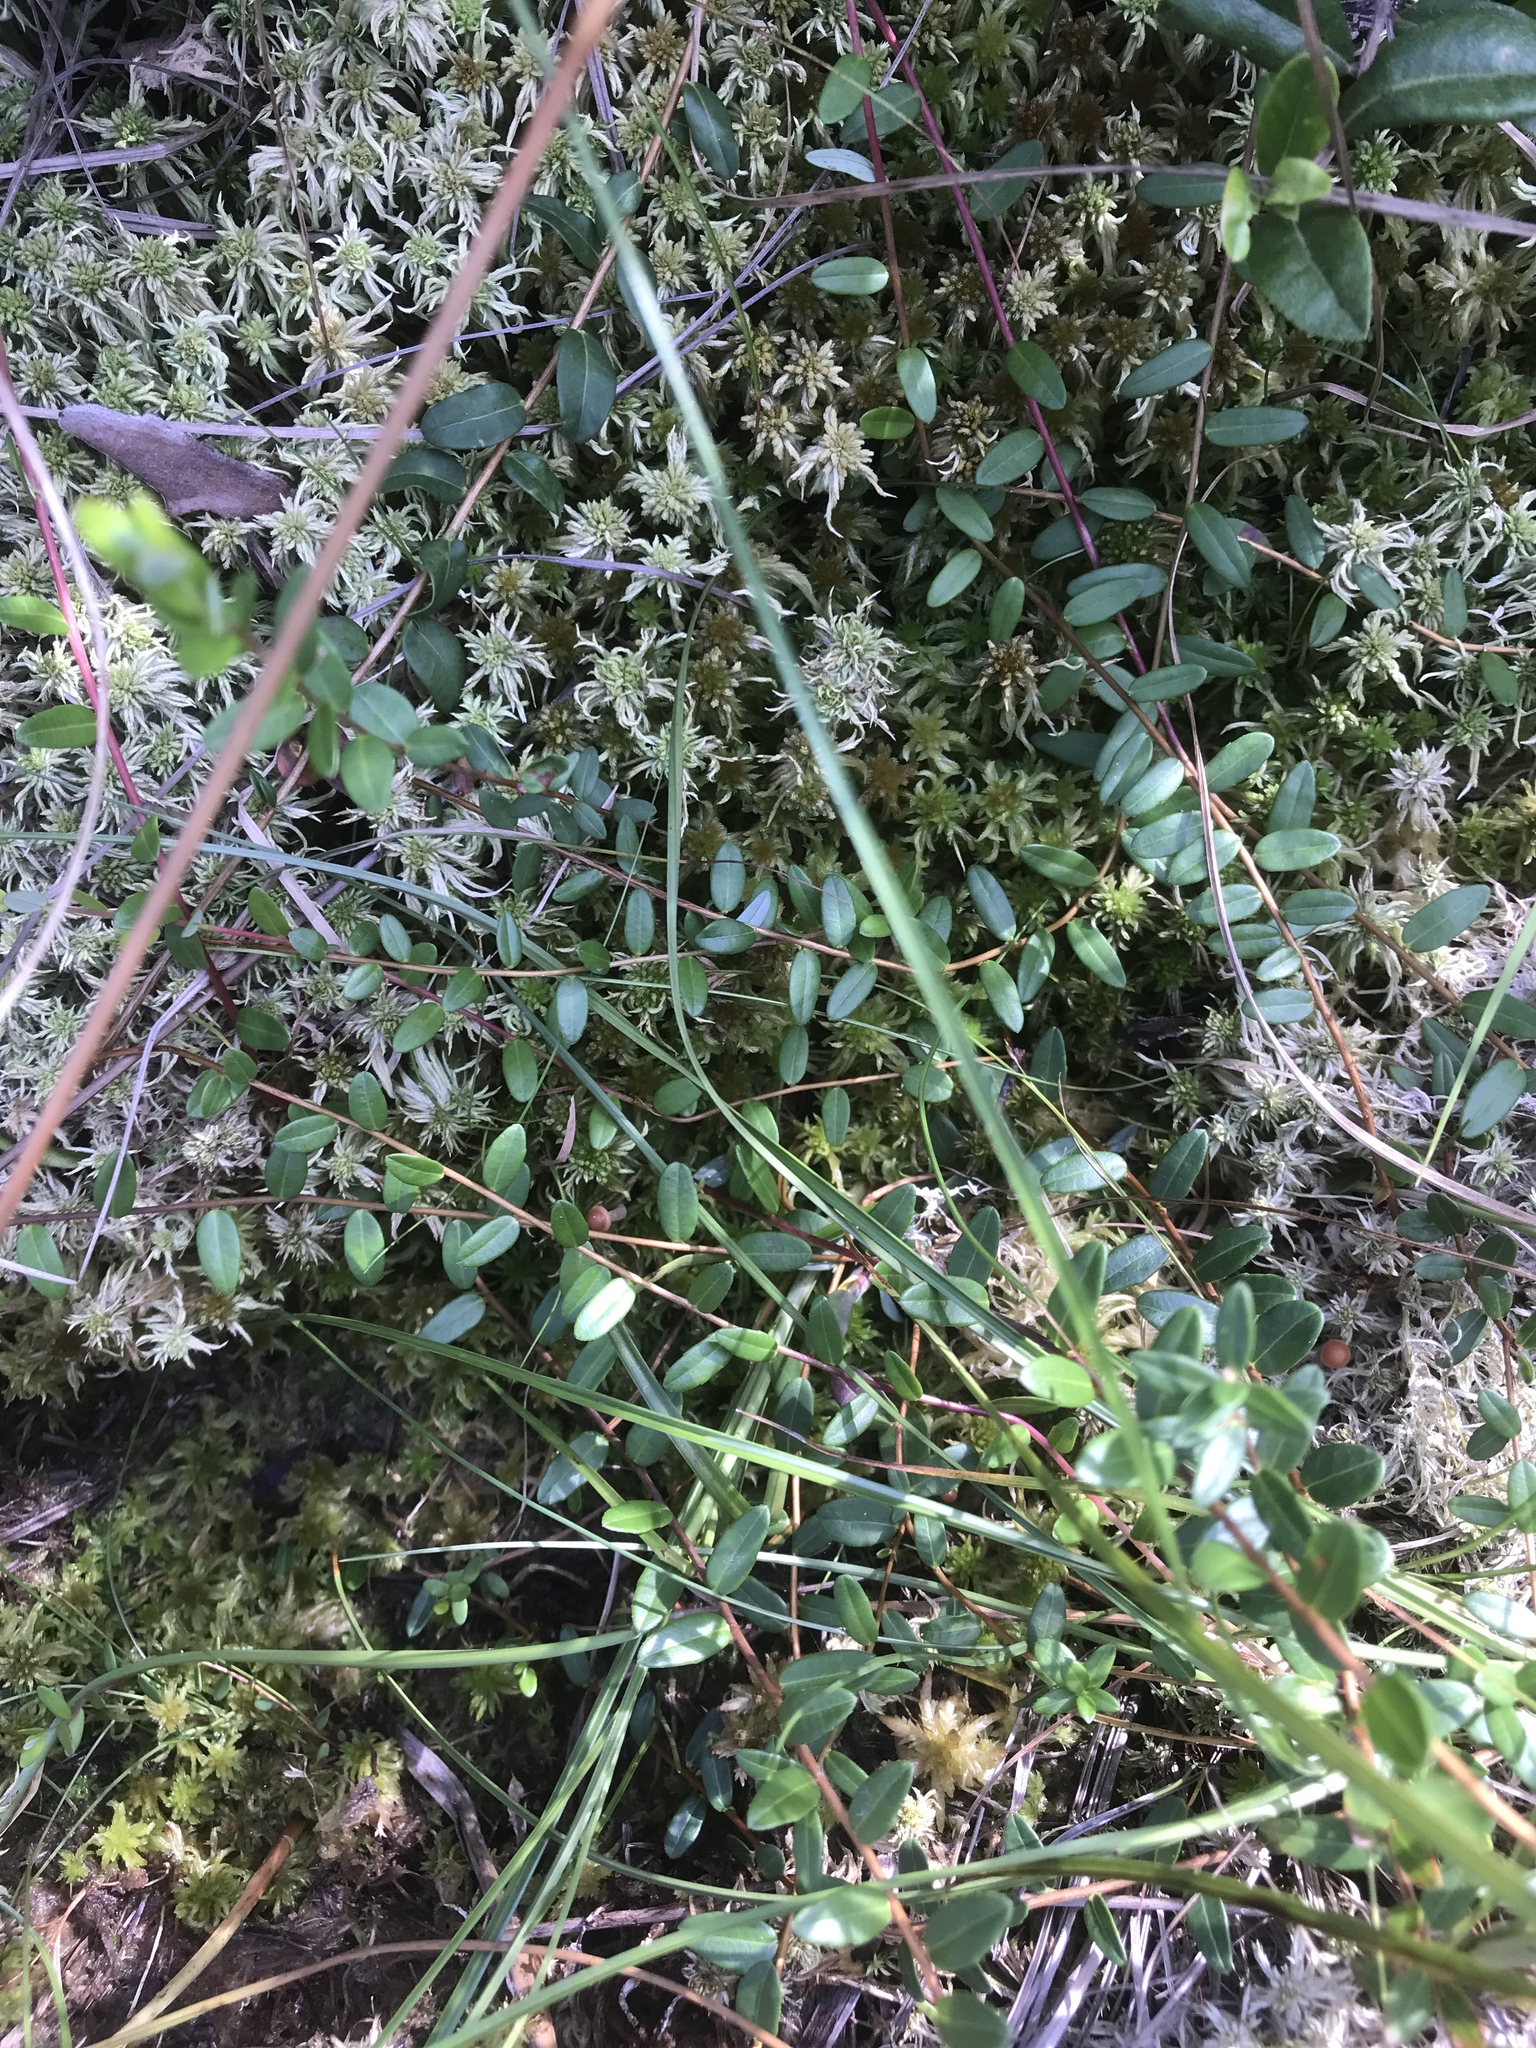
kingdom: Plantae
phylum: Tracheophyta
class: Magnoliopsida
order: Ericales
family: Ericaceae
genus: Vaccinium
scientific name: Vaccinium macrocarpon
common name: American cranberry
